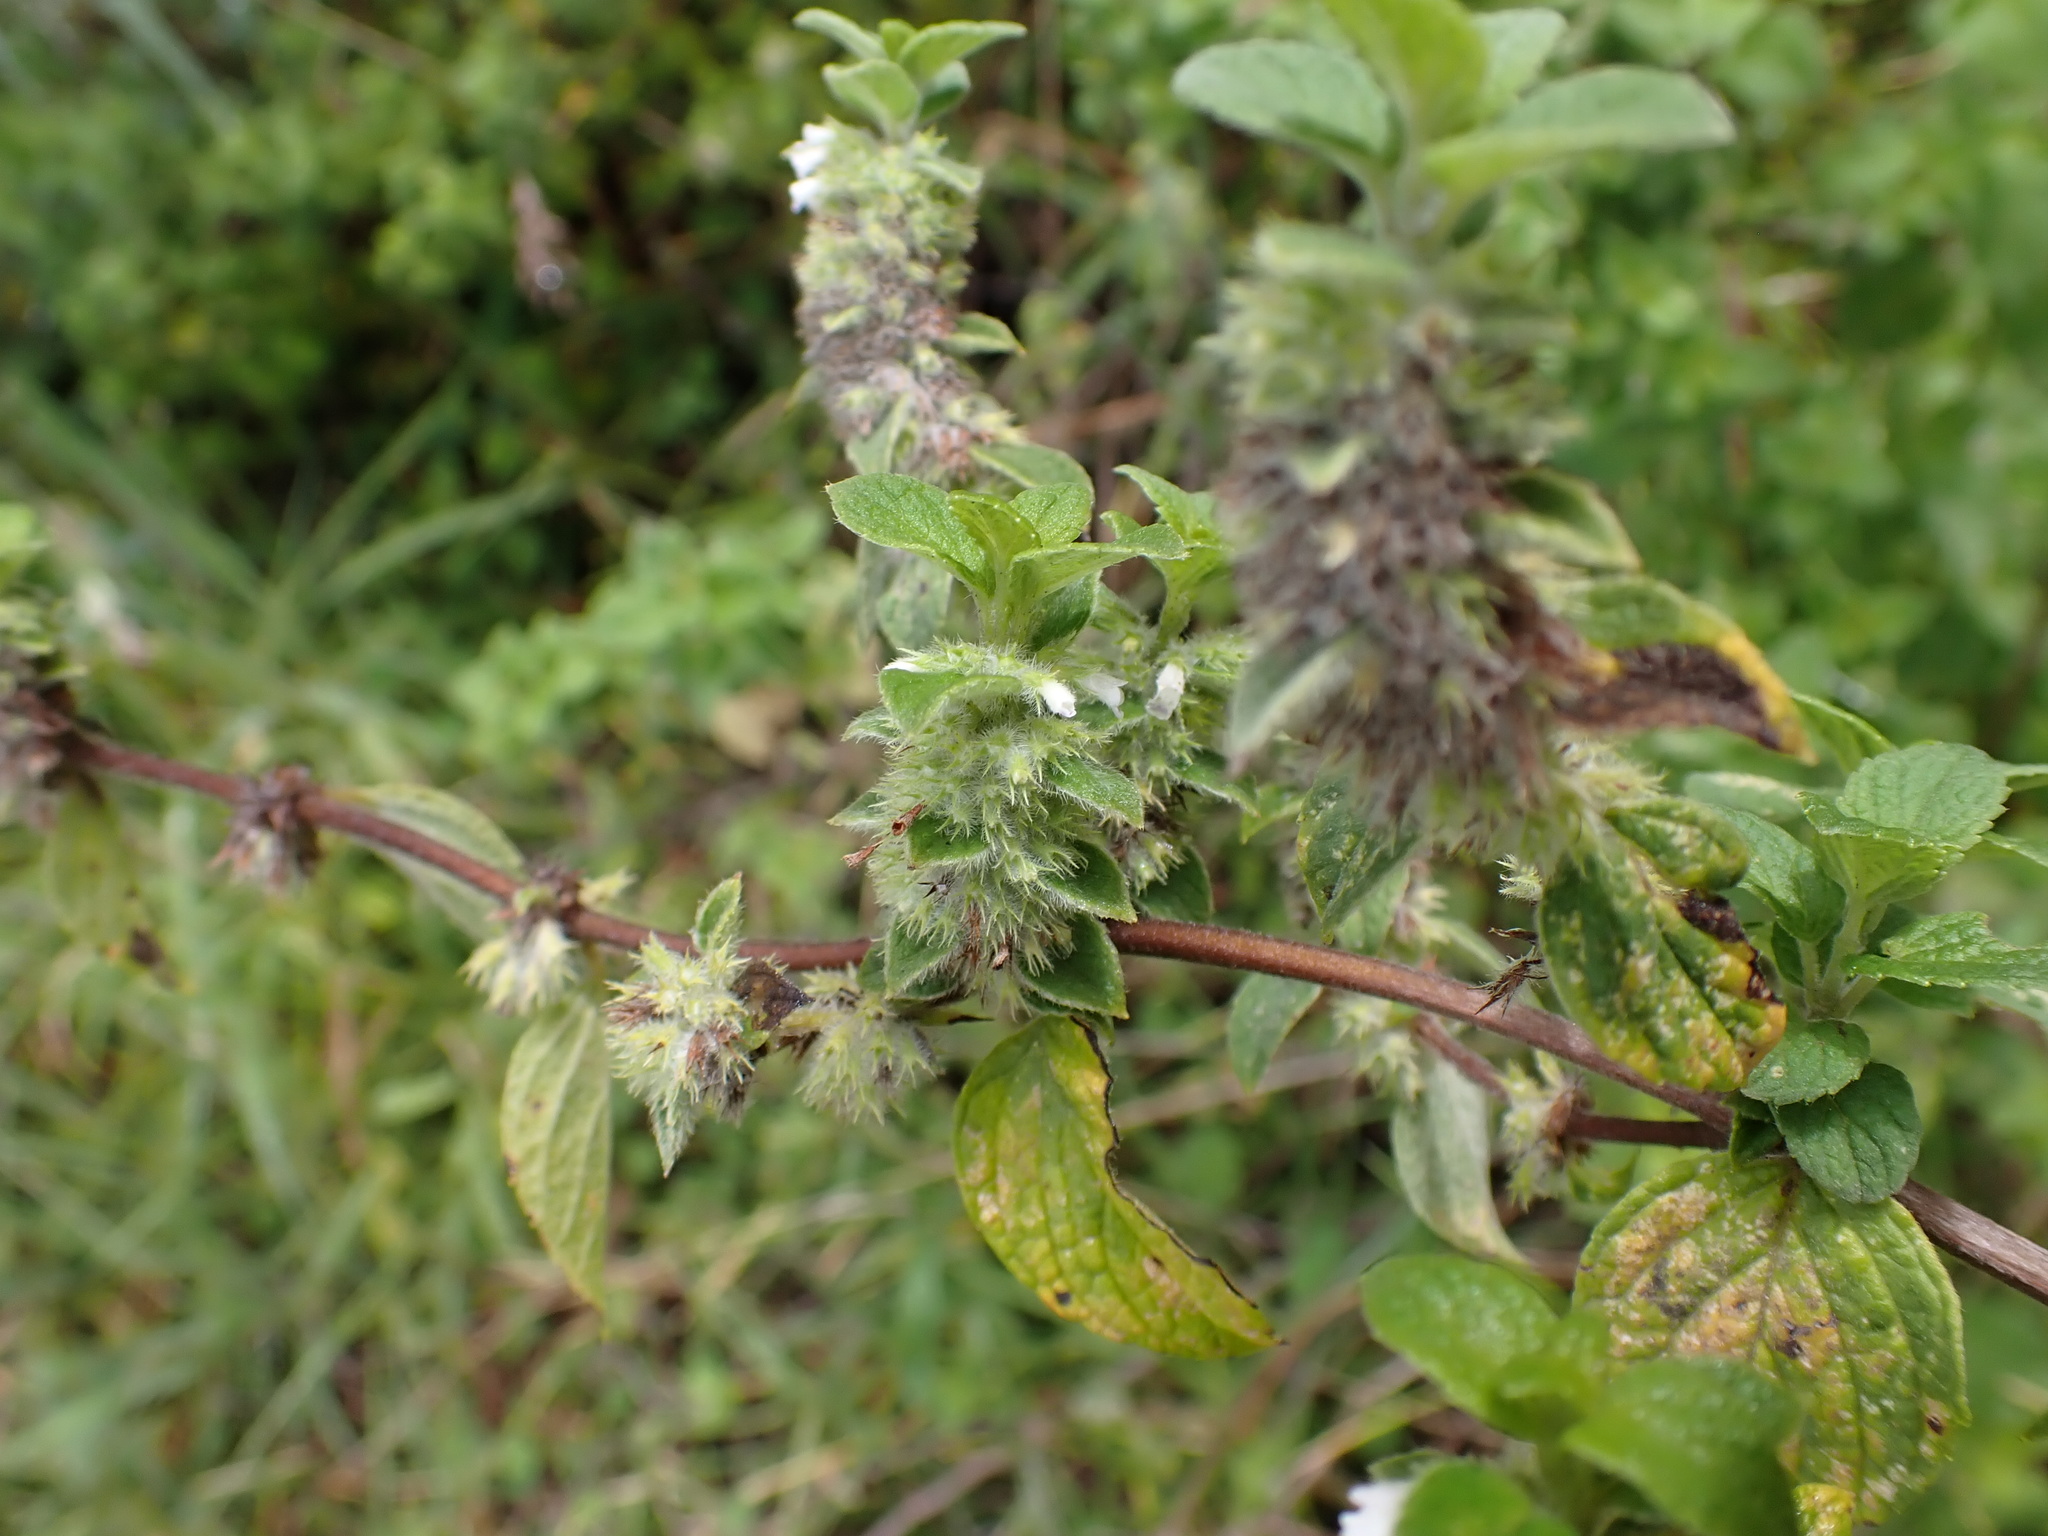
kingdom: Plantae
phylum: Tracheophyta
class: Magnoliopsida
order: Lamiales
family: Lamiaceae
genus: Minthostachys
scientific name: Minthostachys mollis
